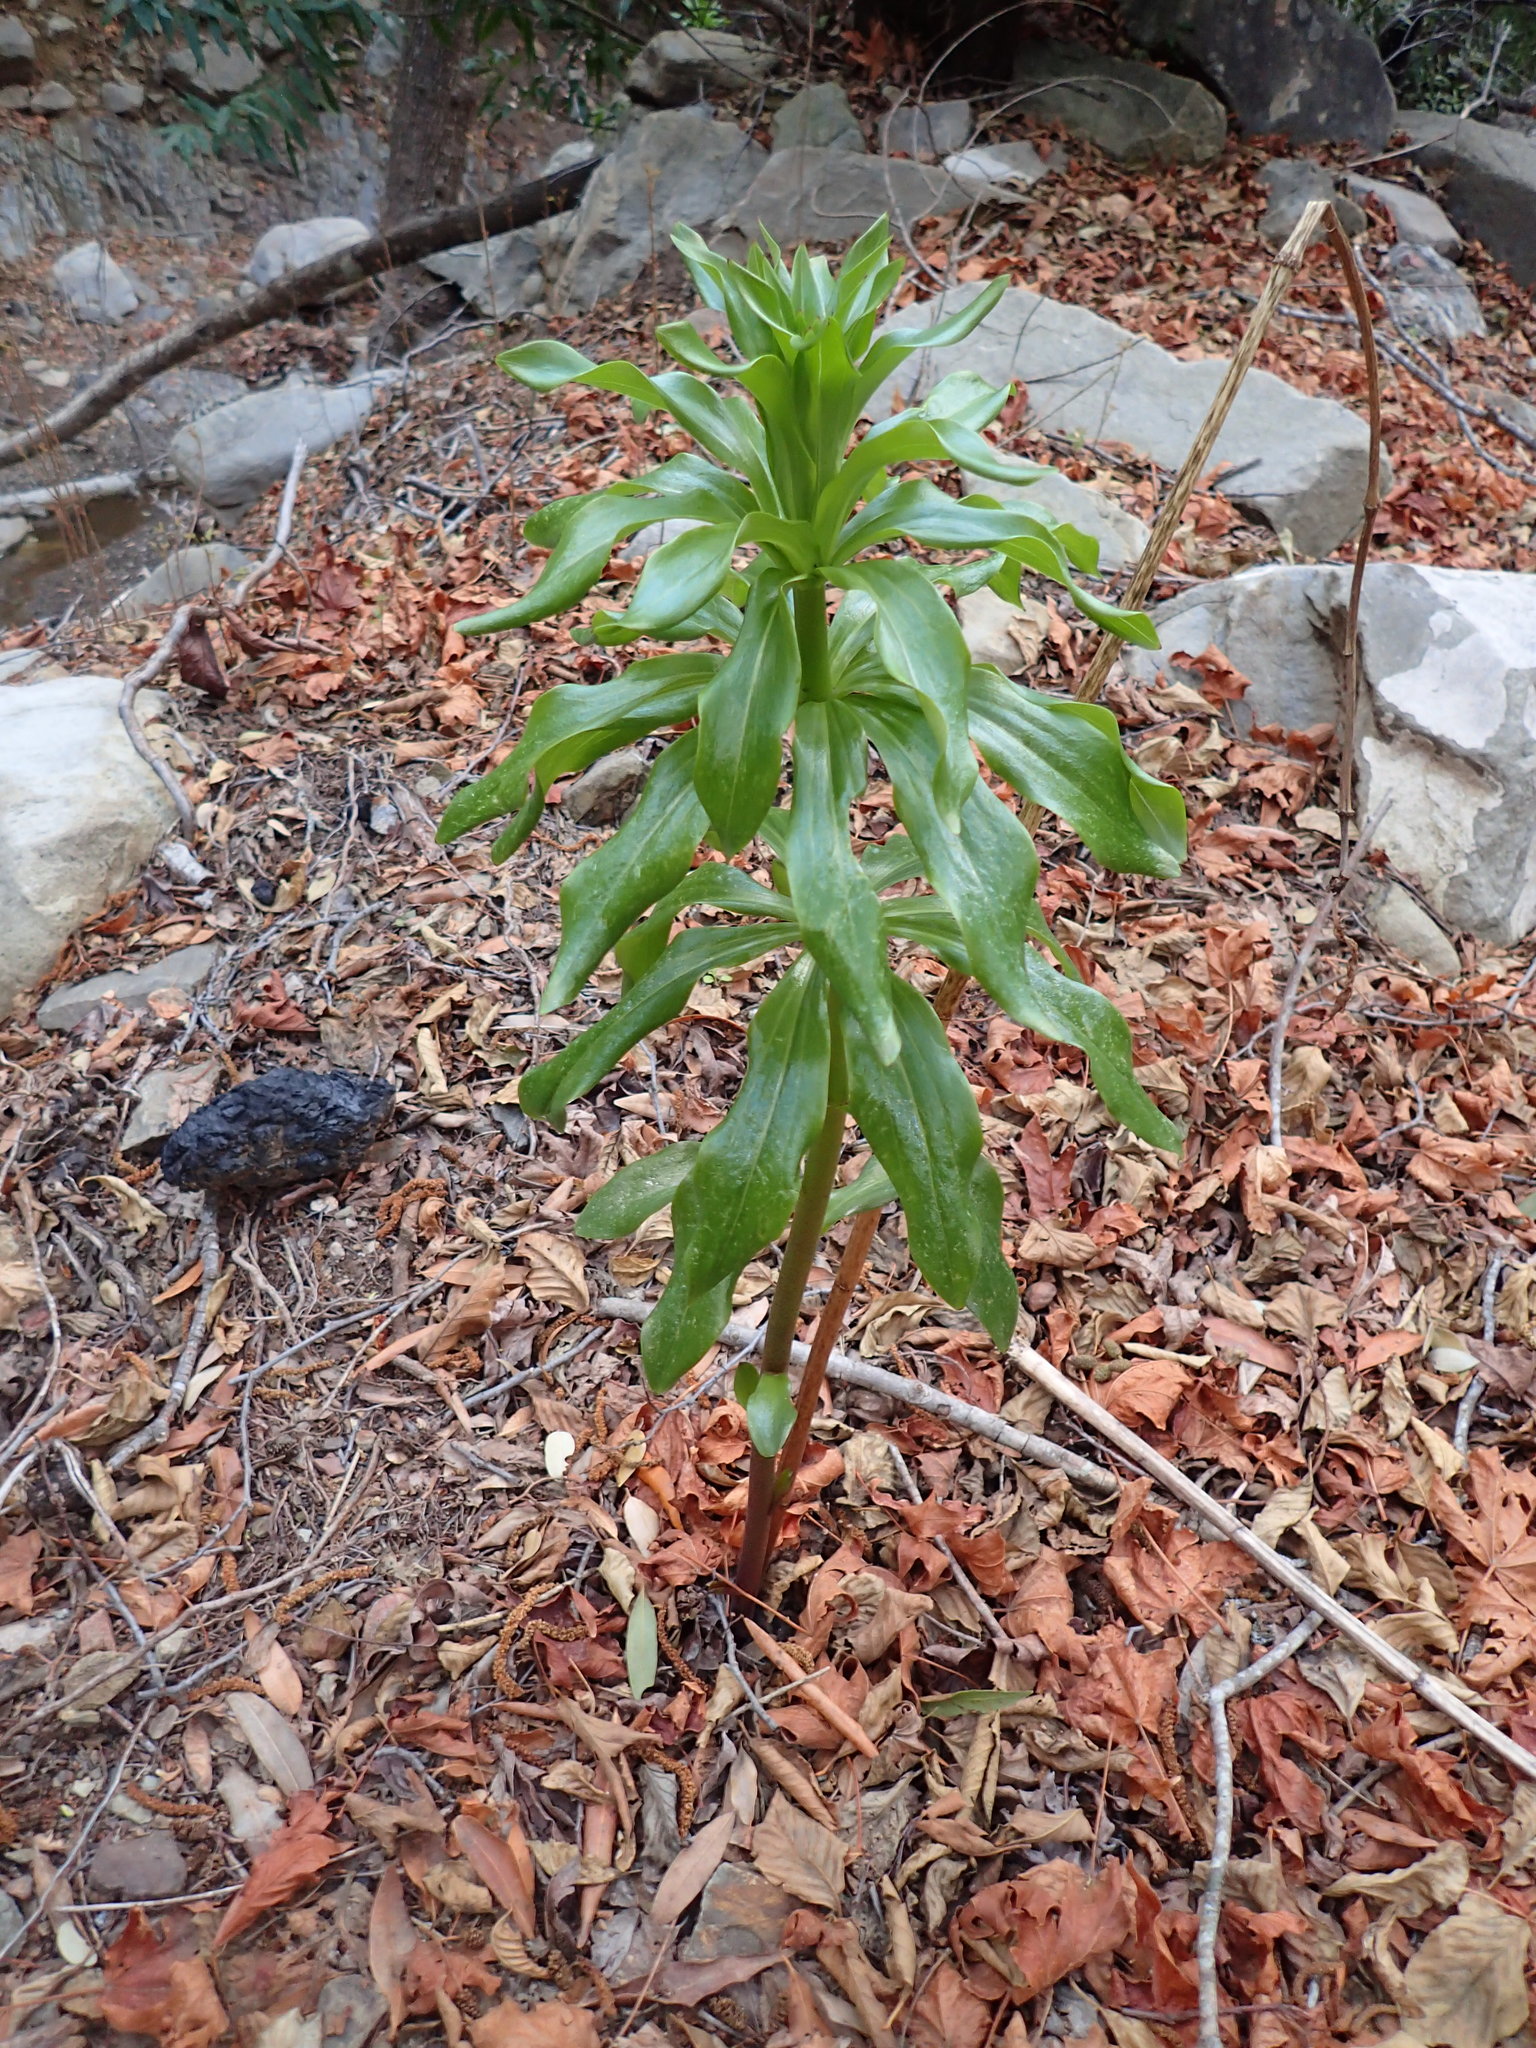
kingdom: Plantae
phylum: Tracheophyta
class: Liliopsida
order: Liliales
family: Liliaceae
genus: Lilium
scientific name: Lilium humboldtii
